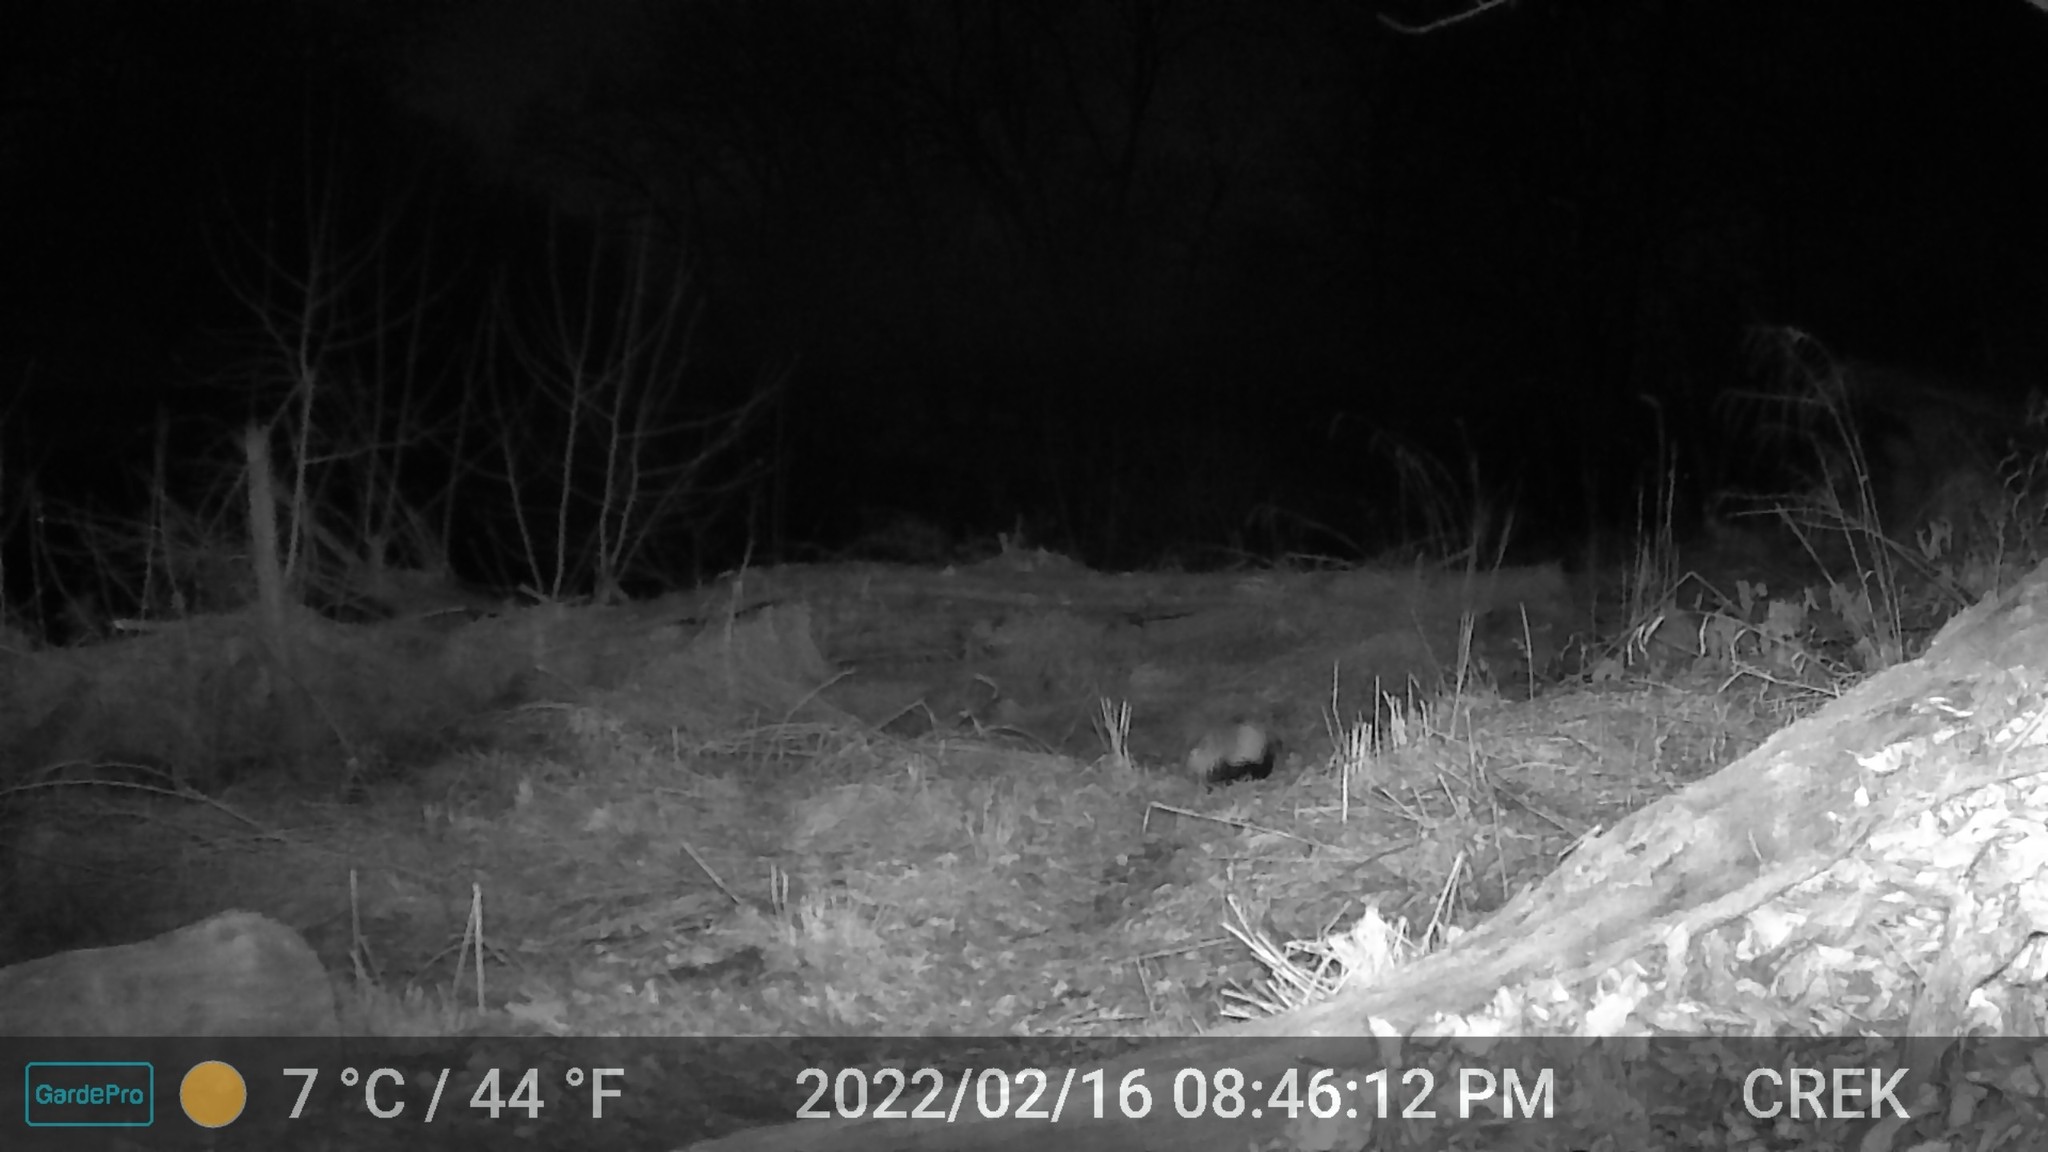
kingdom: Animalia
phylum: Chordata
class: Mammalia
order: Carnivora
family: Mephitidae
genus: Mephitis
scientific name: Mephitis mephitis
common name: Striped skunk
